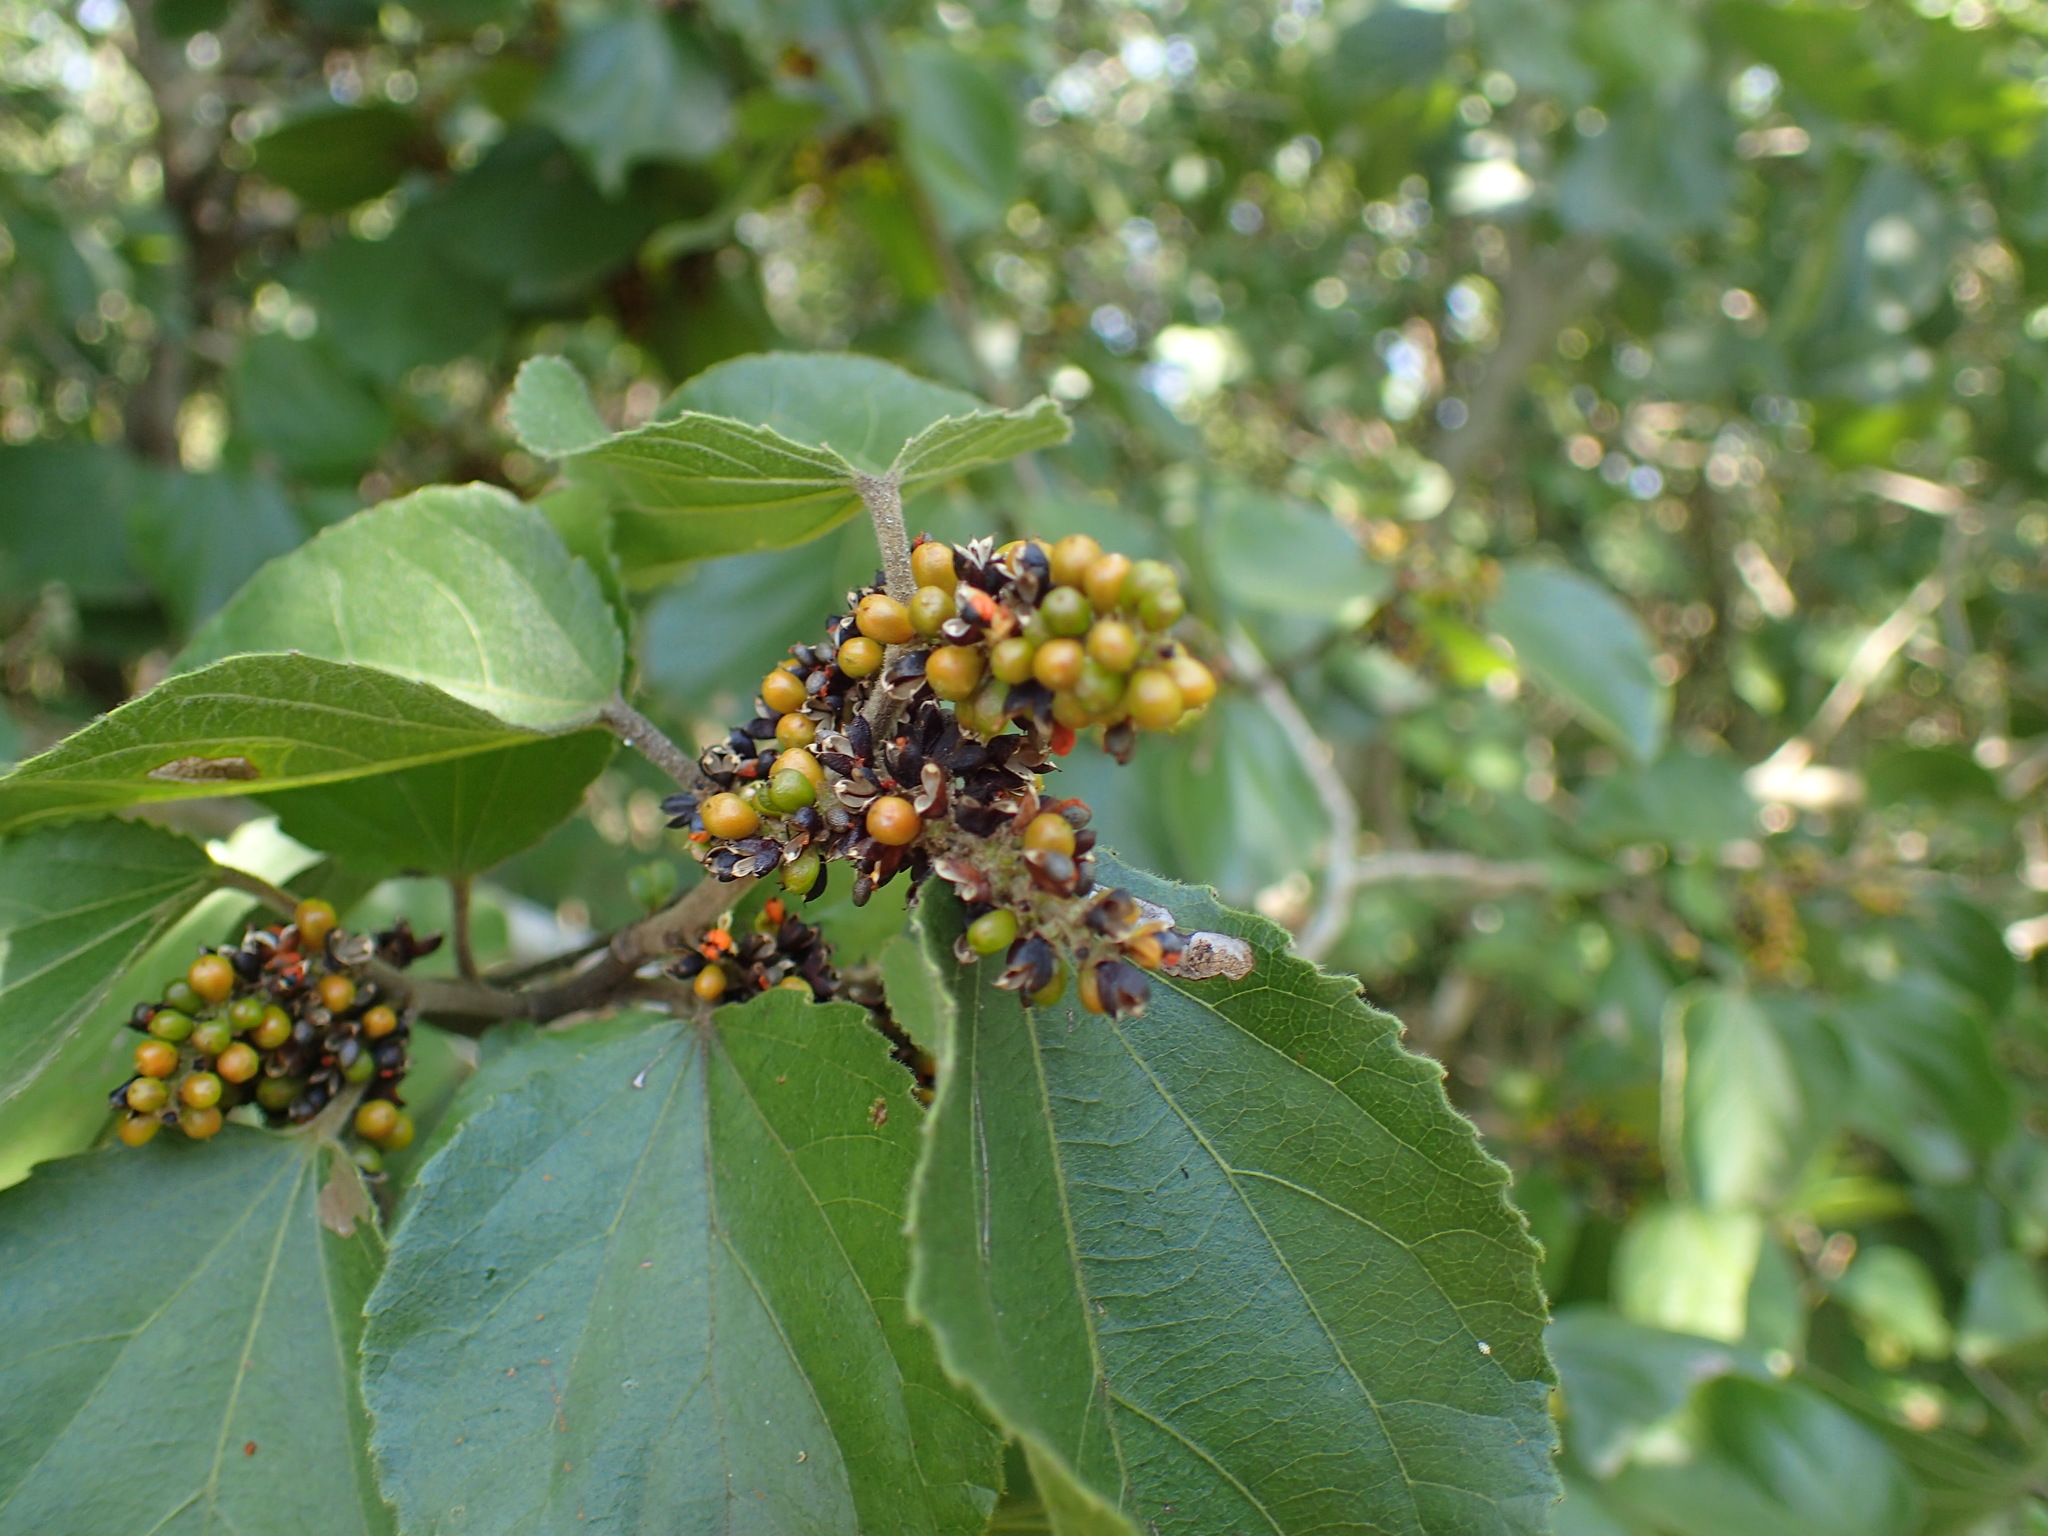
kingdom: Plantae
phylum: Tracheophyta
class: Magnoliopsida
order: Malpighiales
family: Salicaceae
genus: Trimeria
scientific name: Trimeria grandifolia
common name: Wild mulberry
